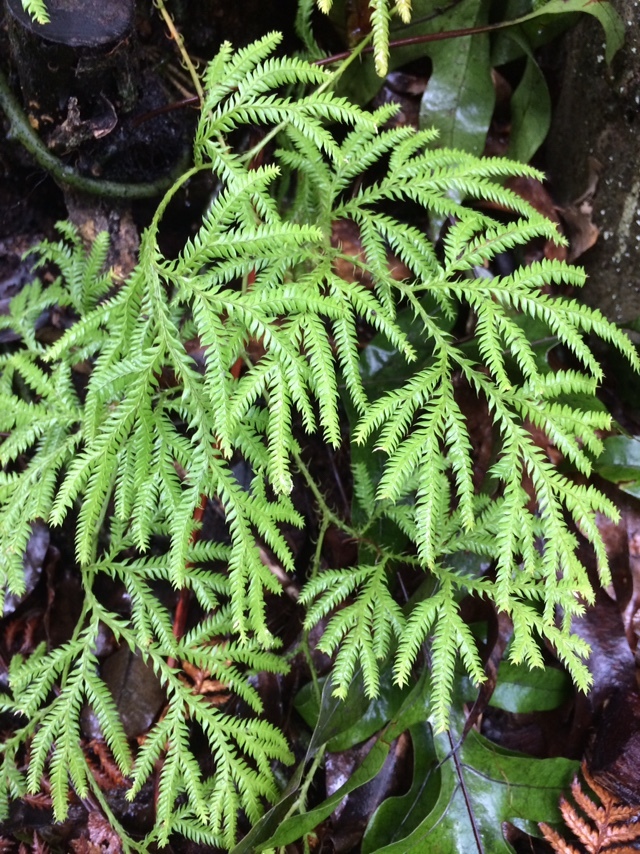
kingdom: Plantae
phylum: Tracheophyta
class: Lycopodiopsida
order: Lycopodiales
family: Lycopodiaceae
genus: Lycopodium
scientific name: Lycopodium volubile
